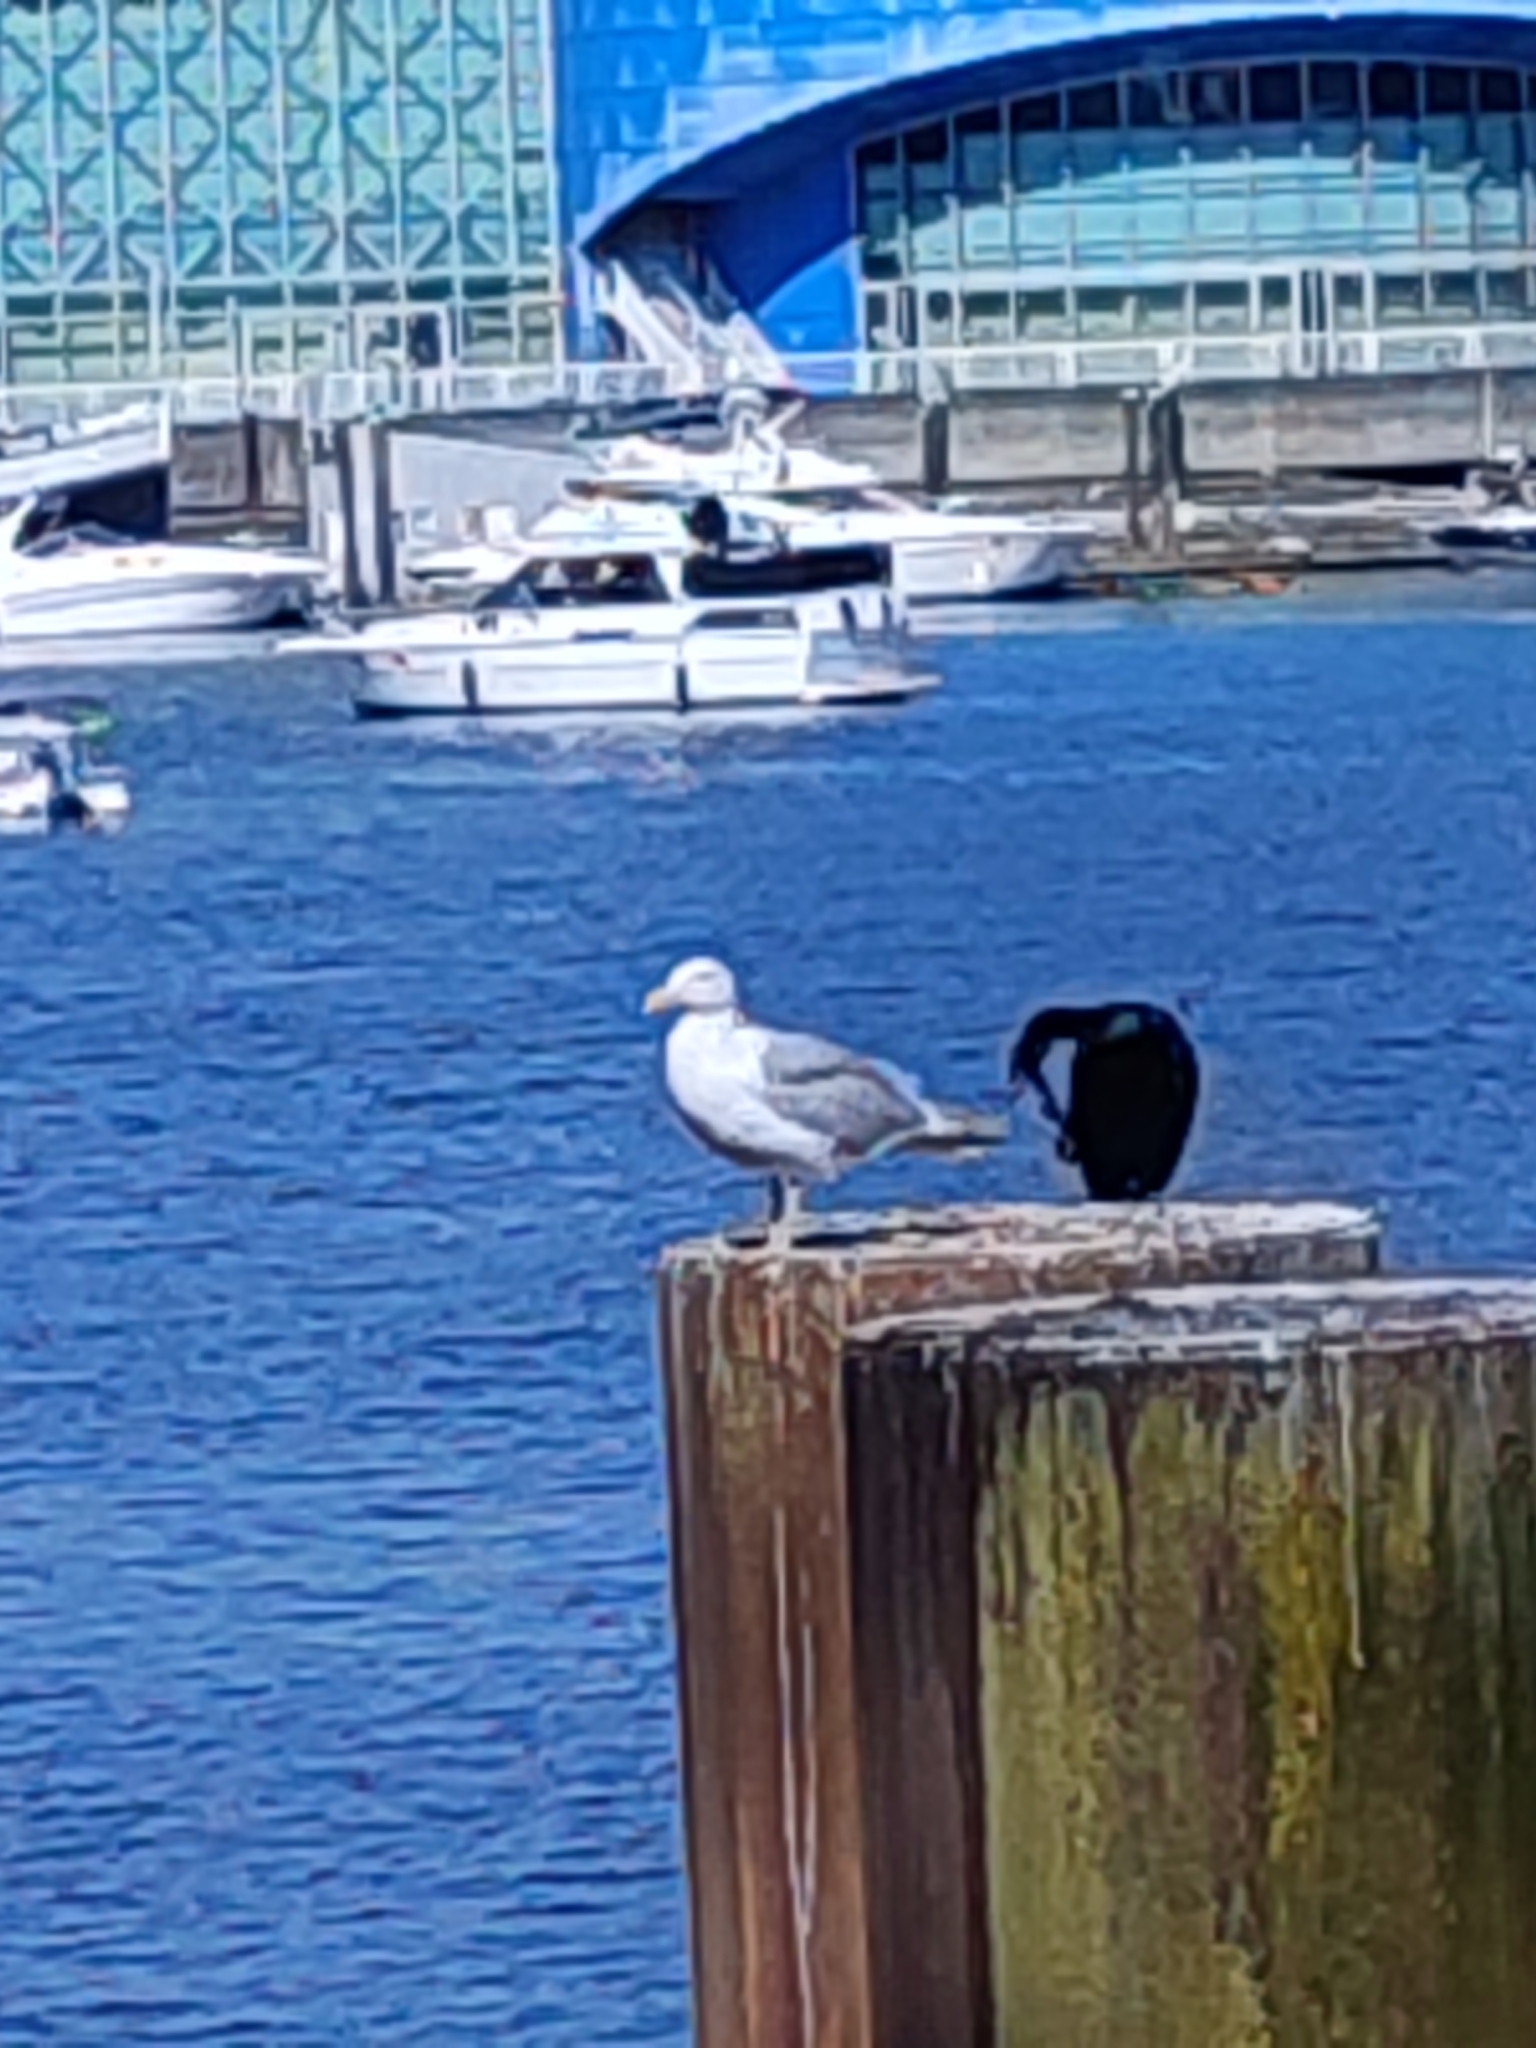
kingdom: Animalia
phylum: Chordata
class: Aves
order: Charadriiformes
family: Laridae
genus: Larus
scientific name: Larus glaucescens
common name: Glaucous-winged gull
